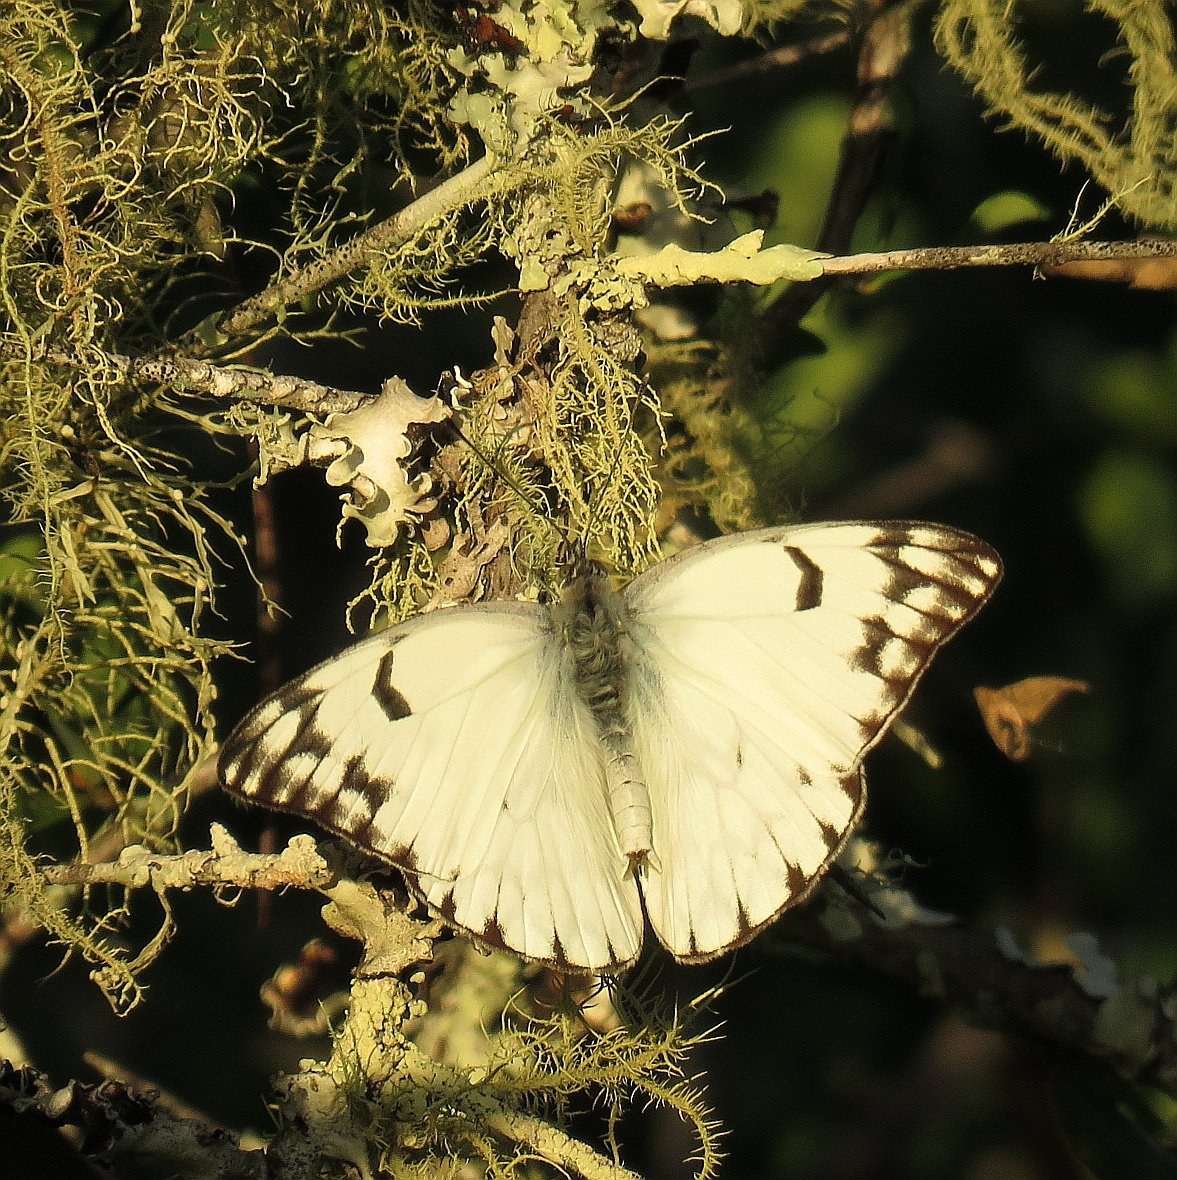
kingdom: Animalia
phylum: Arthropoda
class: Insecta
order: Lepidoptera
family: Pieridae
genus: Belenois
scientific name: Belenois gidica
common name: Pointed caper white
